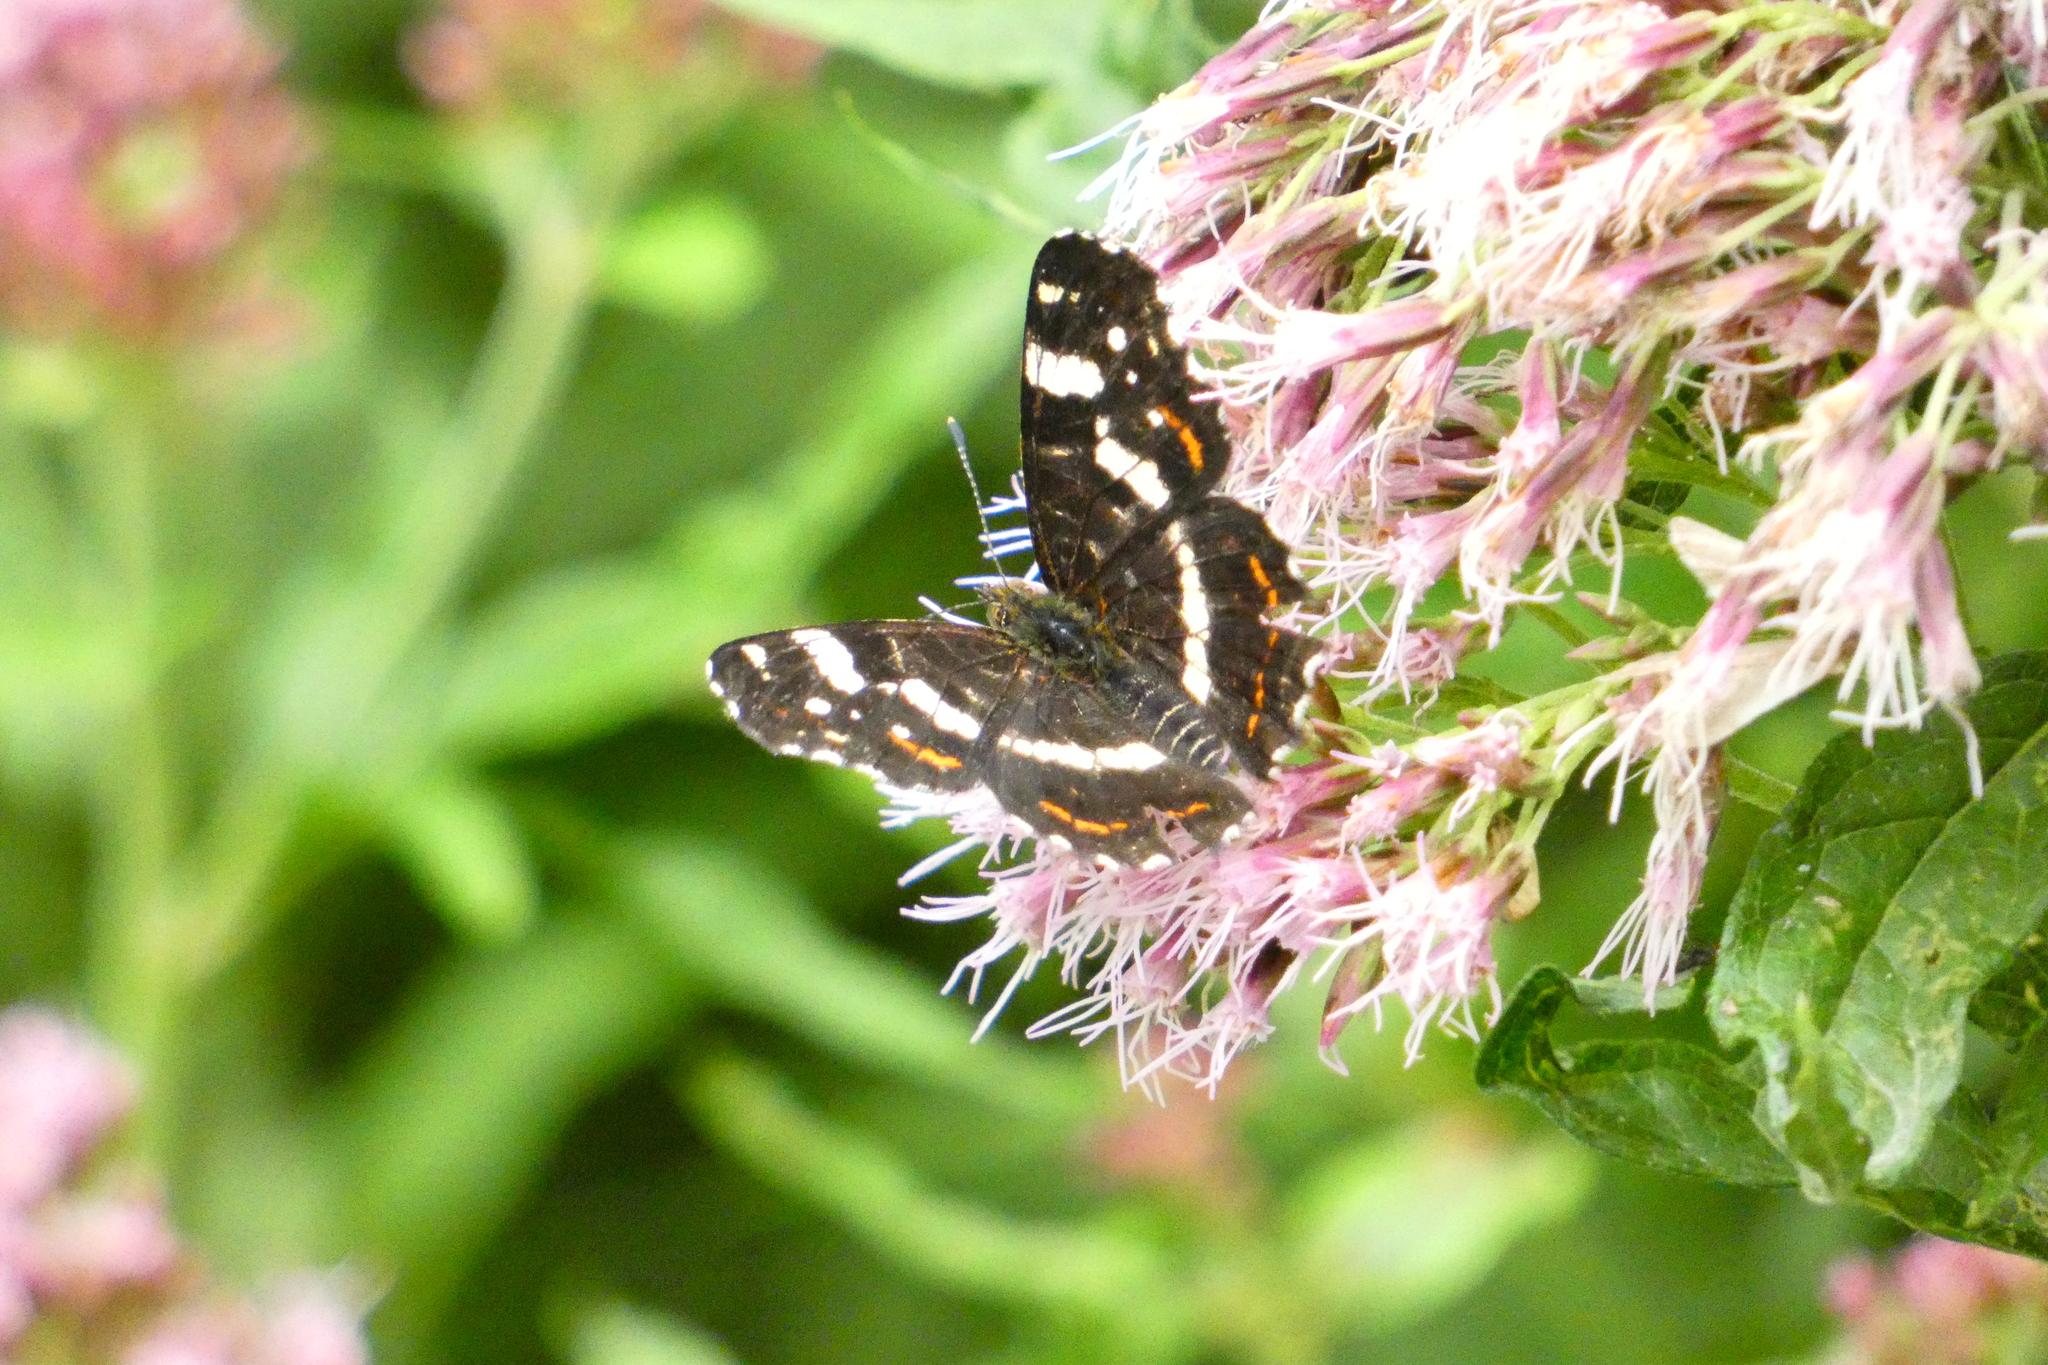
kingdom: Animalia
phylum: Arthropoda
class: Insecta
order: Lepidoptera
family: Nymphalidae
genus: Araschnia
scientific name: Araschnia levana
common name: Map butterfly
